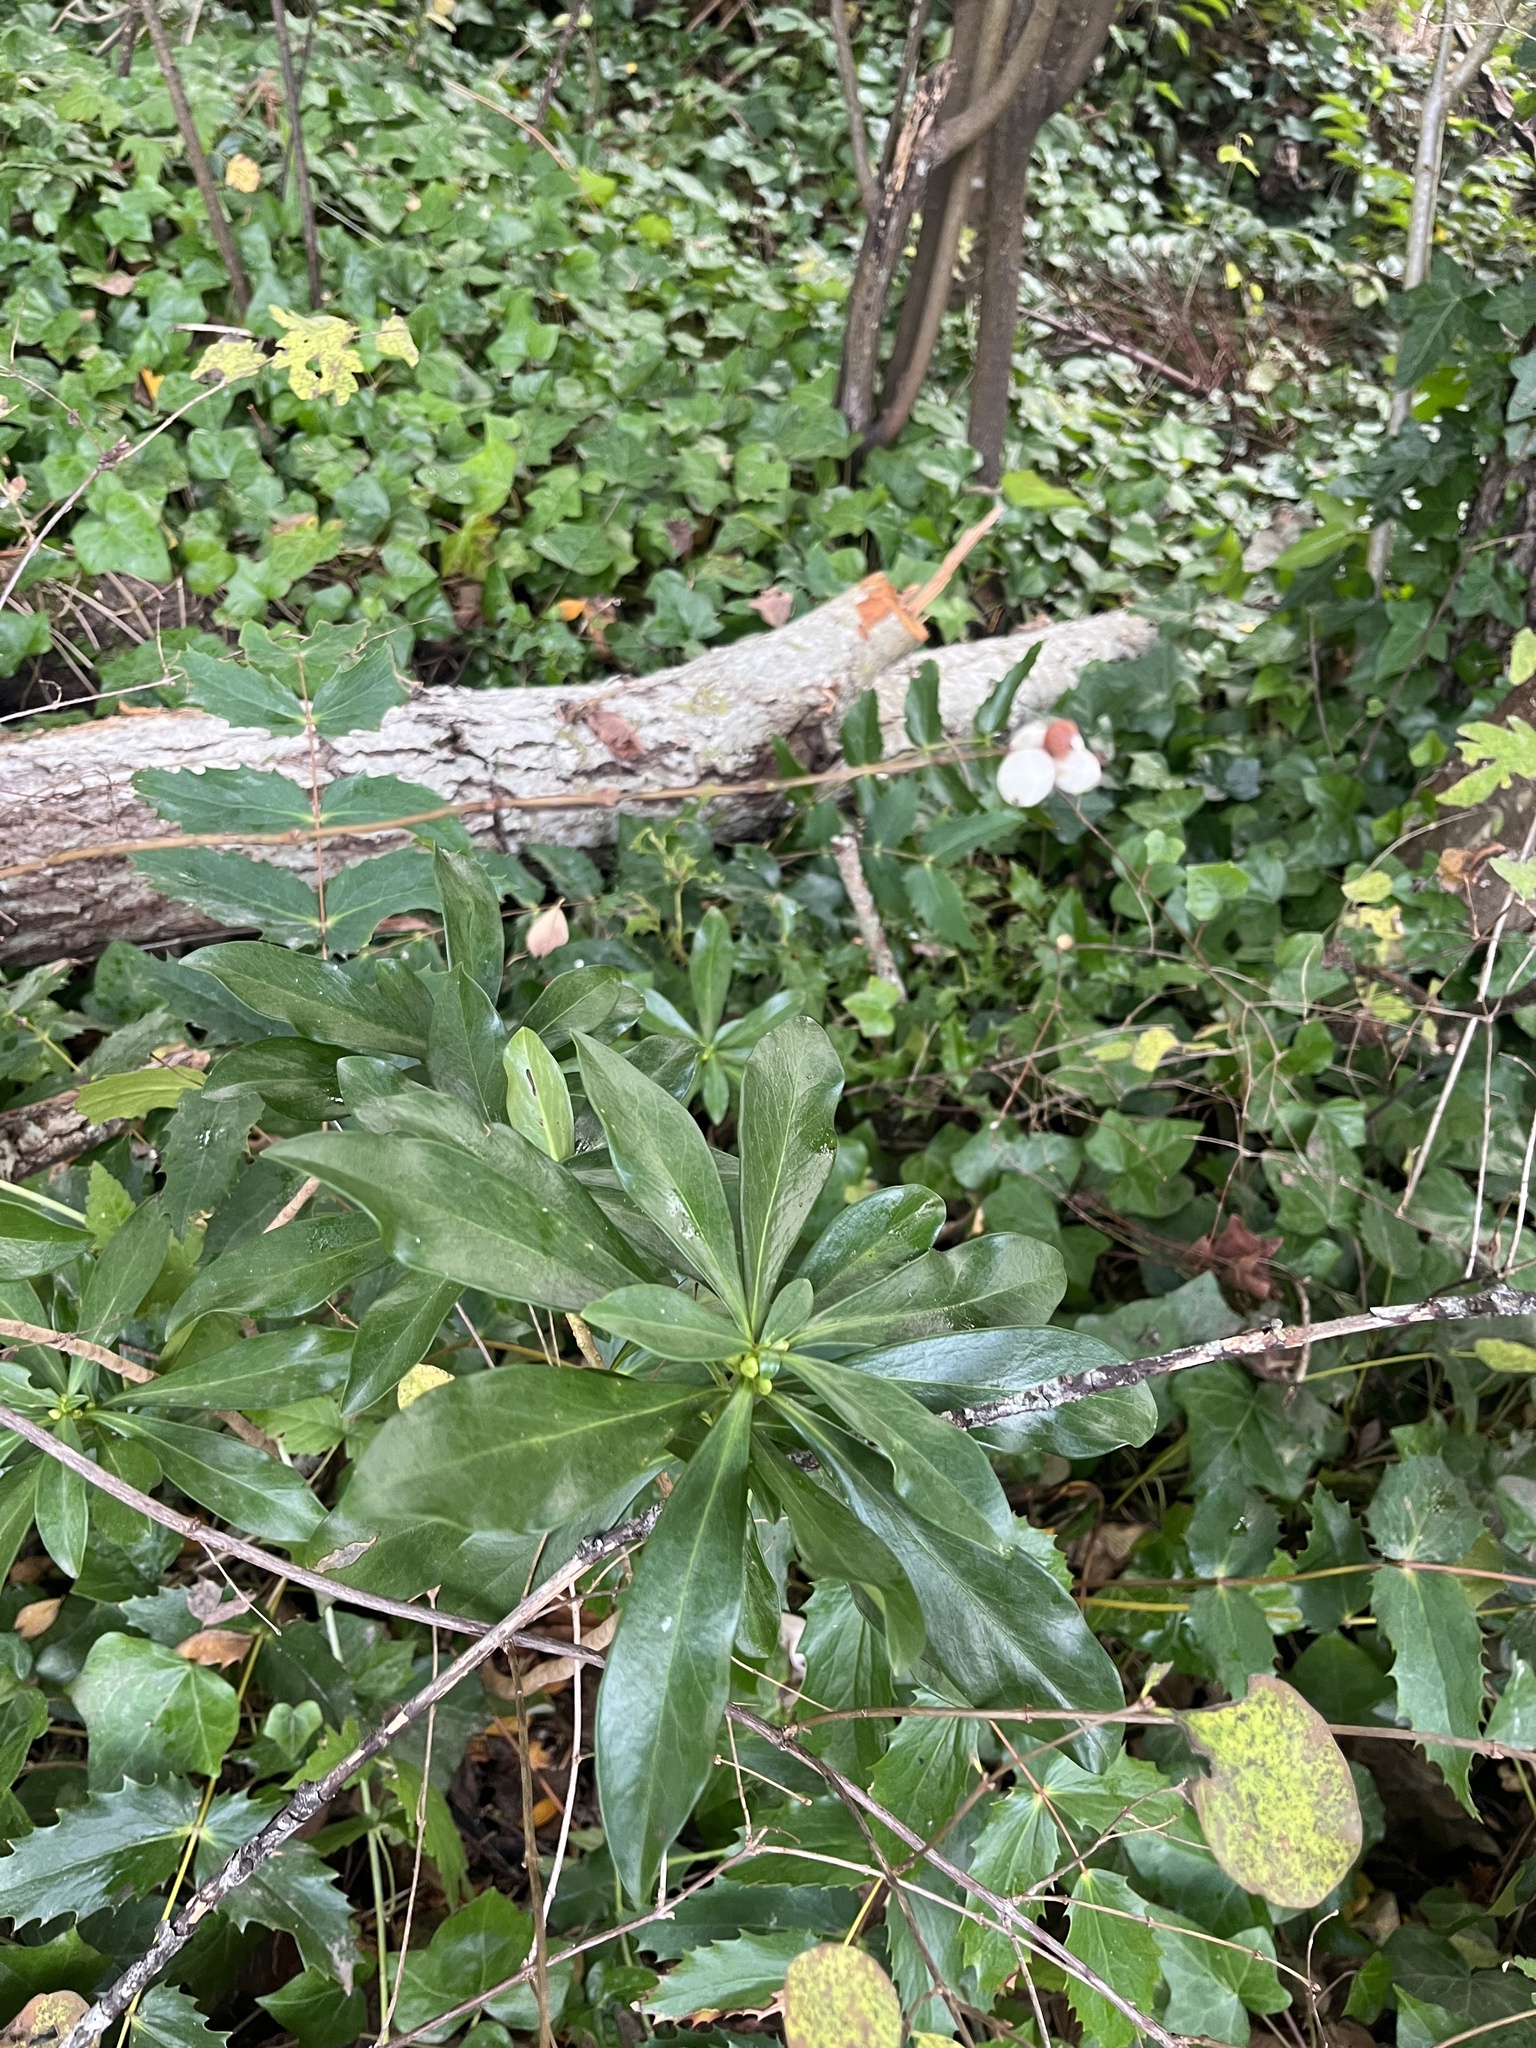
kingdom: Plantae
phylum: Tracheophyta
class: Magnoliopsida
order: Malvales
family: Thymelaeaceae
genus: Daphne
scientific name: Daphne laureola
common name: Spurge-laurel
